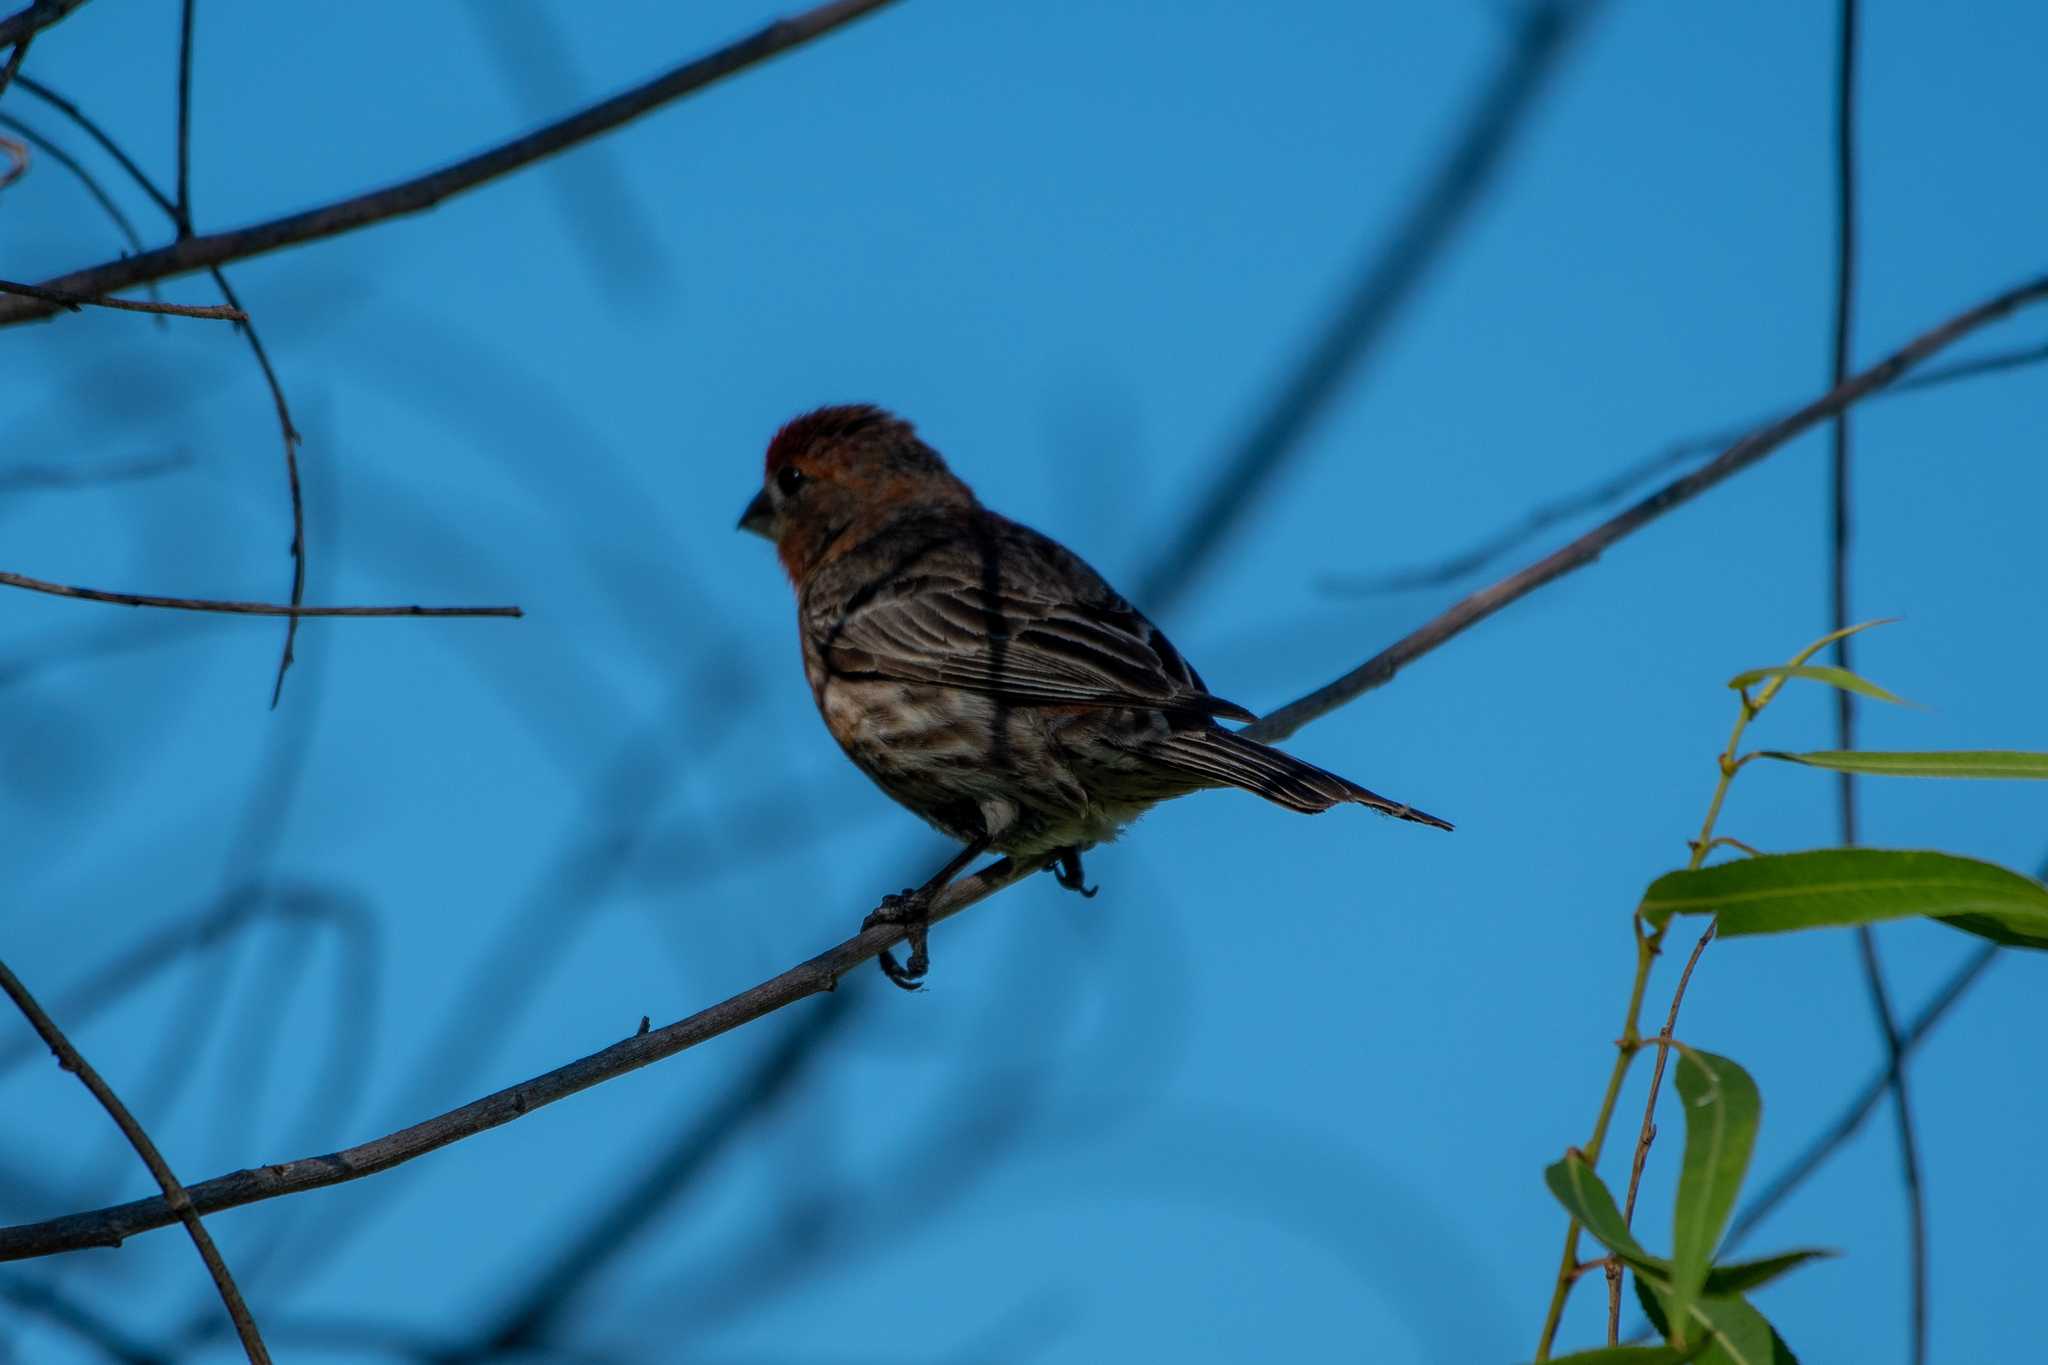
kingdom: Animalia
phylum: Chordata
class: Aves
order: Passeriformes
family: Fringillidae
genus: Haemorhous
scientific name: Haemorhous mexicanus
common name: House finch
